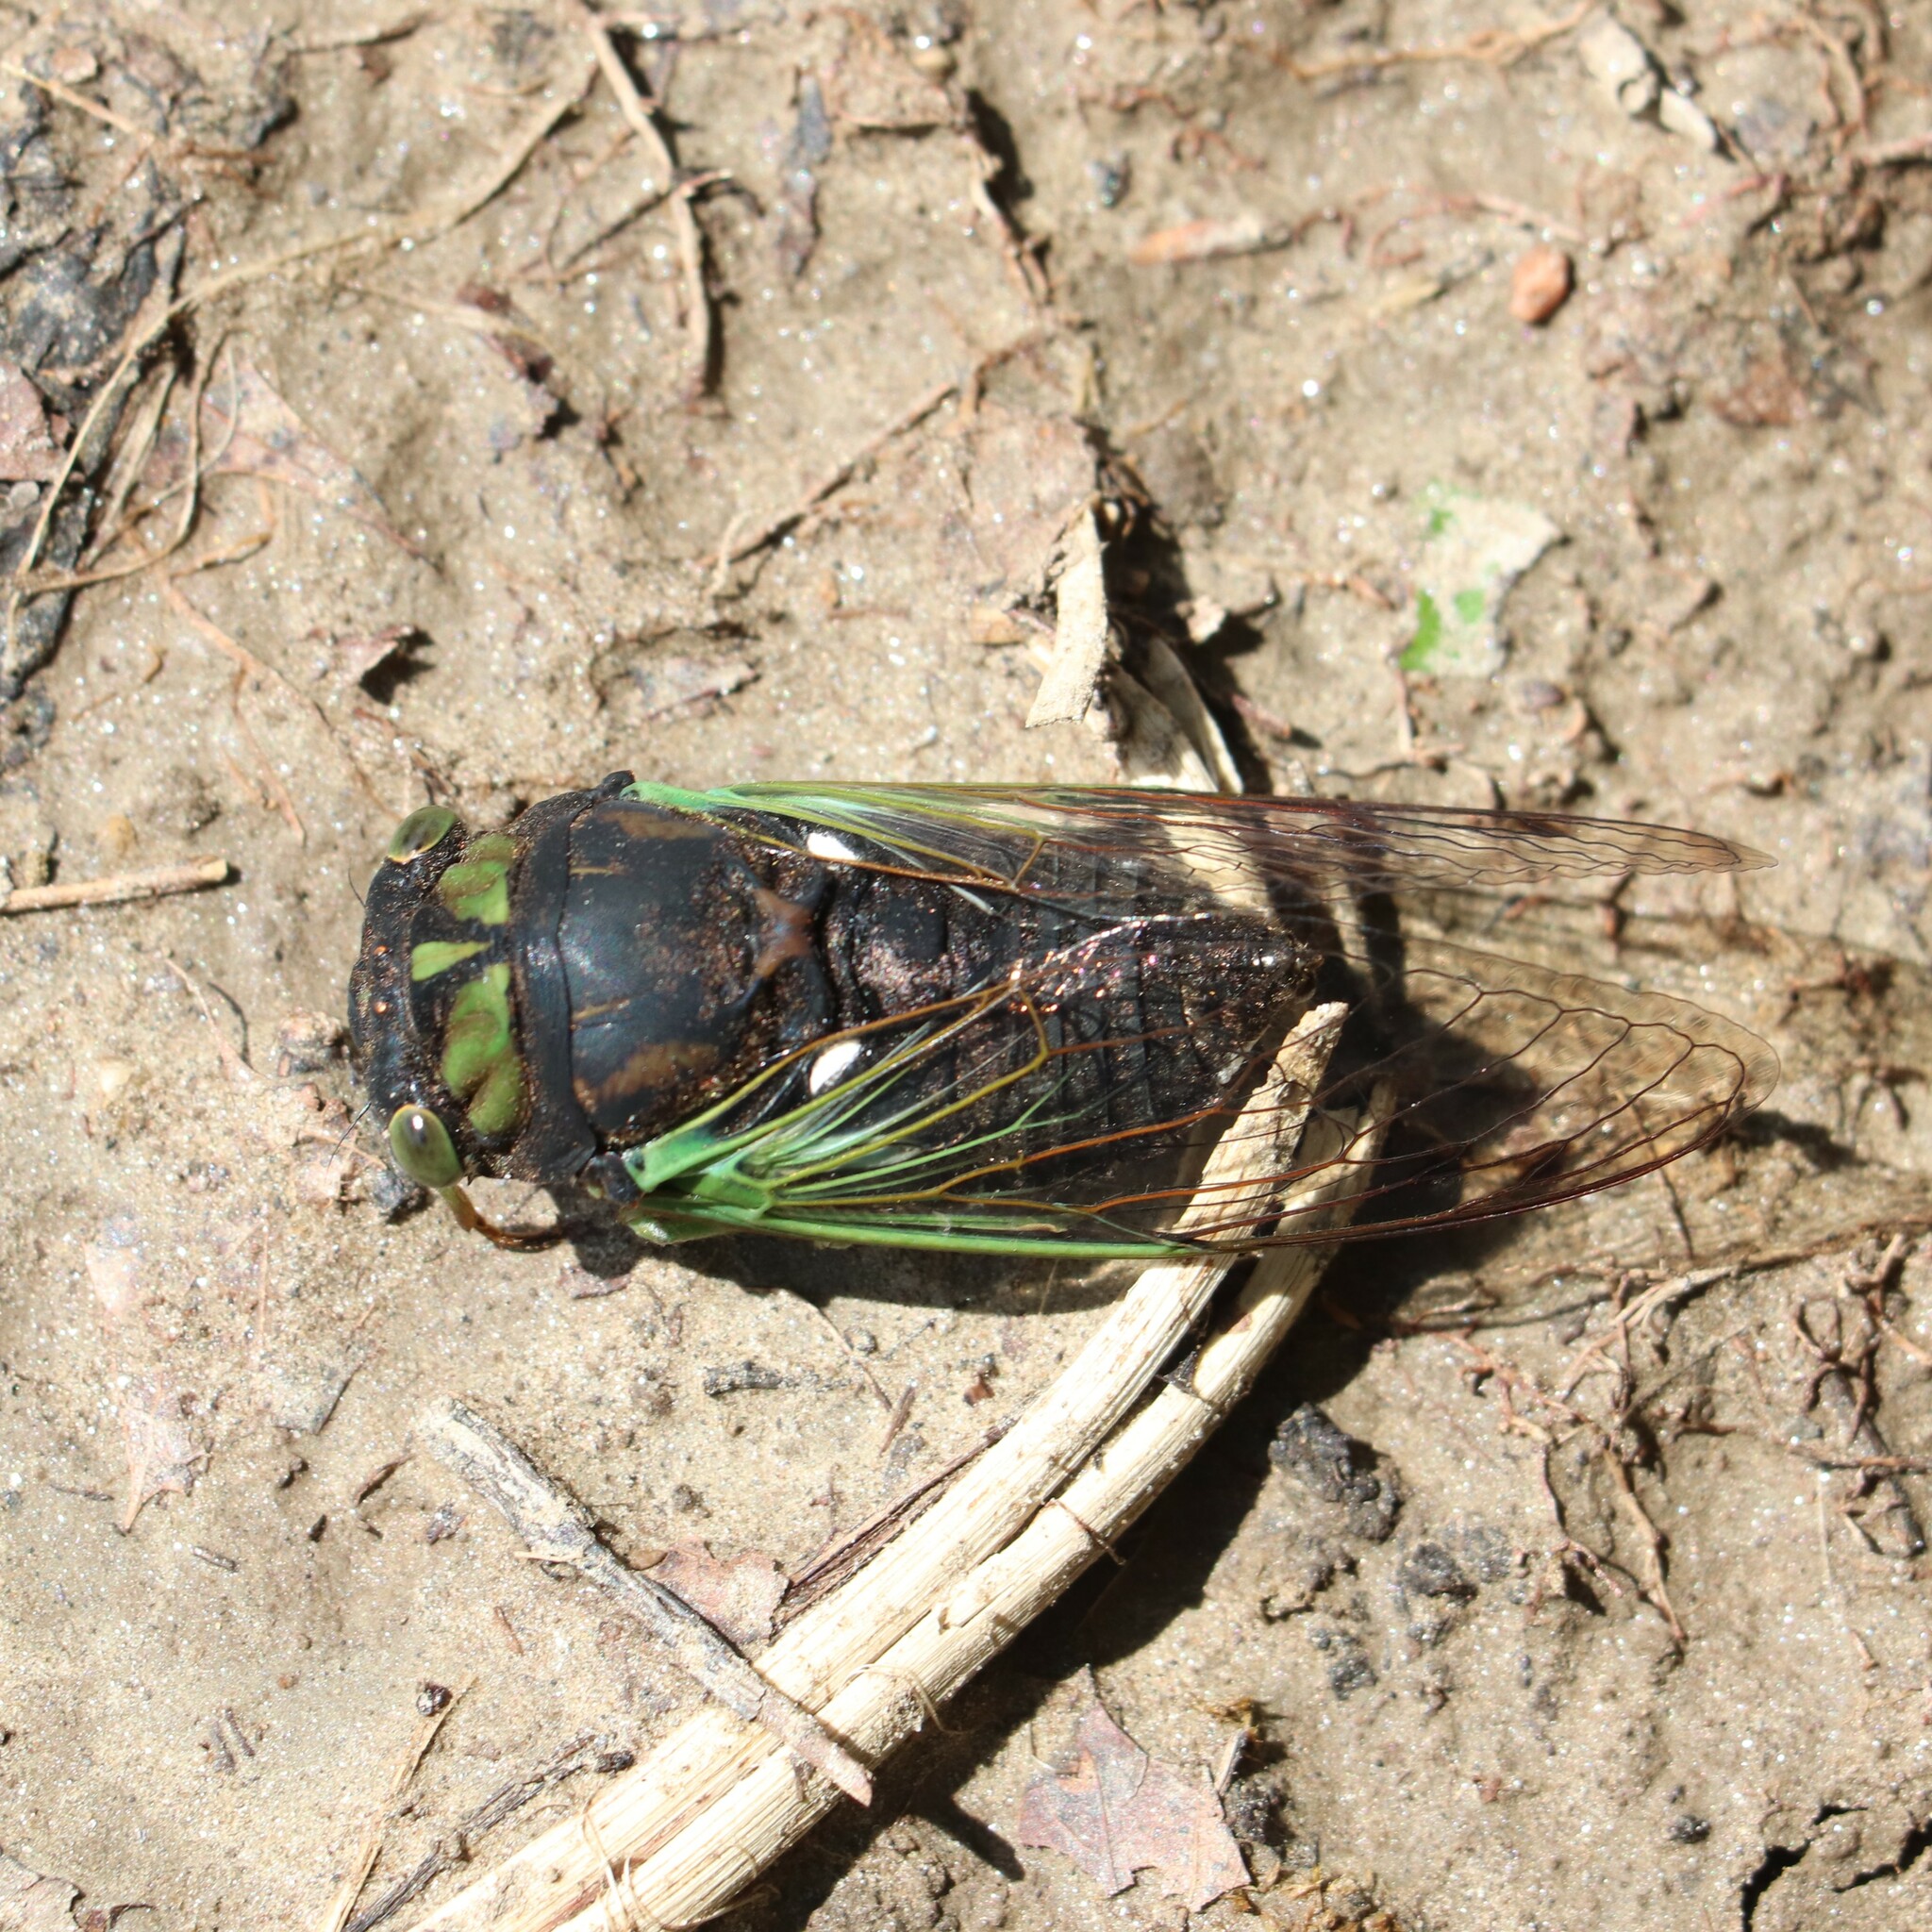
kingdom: Animalia
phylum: Arthropoda
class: Insecta
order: Hemiptera
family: Cicadidae
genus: Neotibicen
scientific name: Neotibicen tibicen
